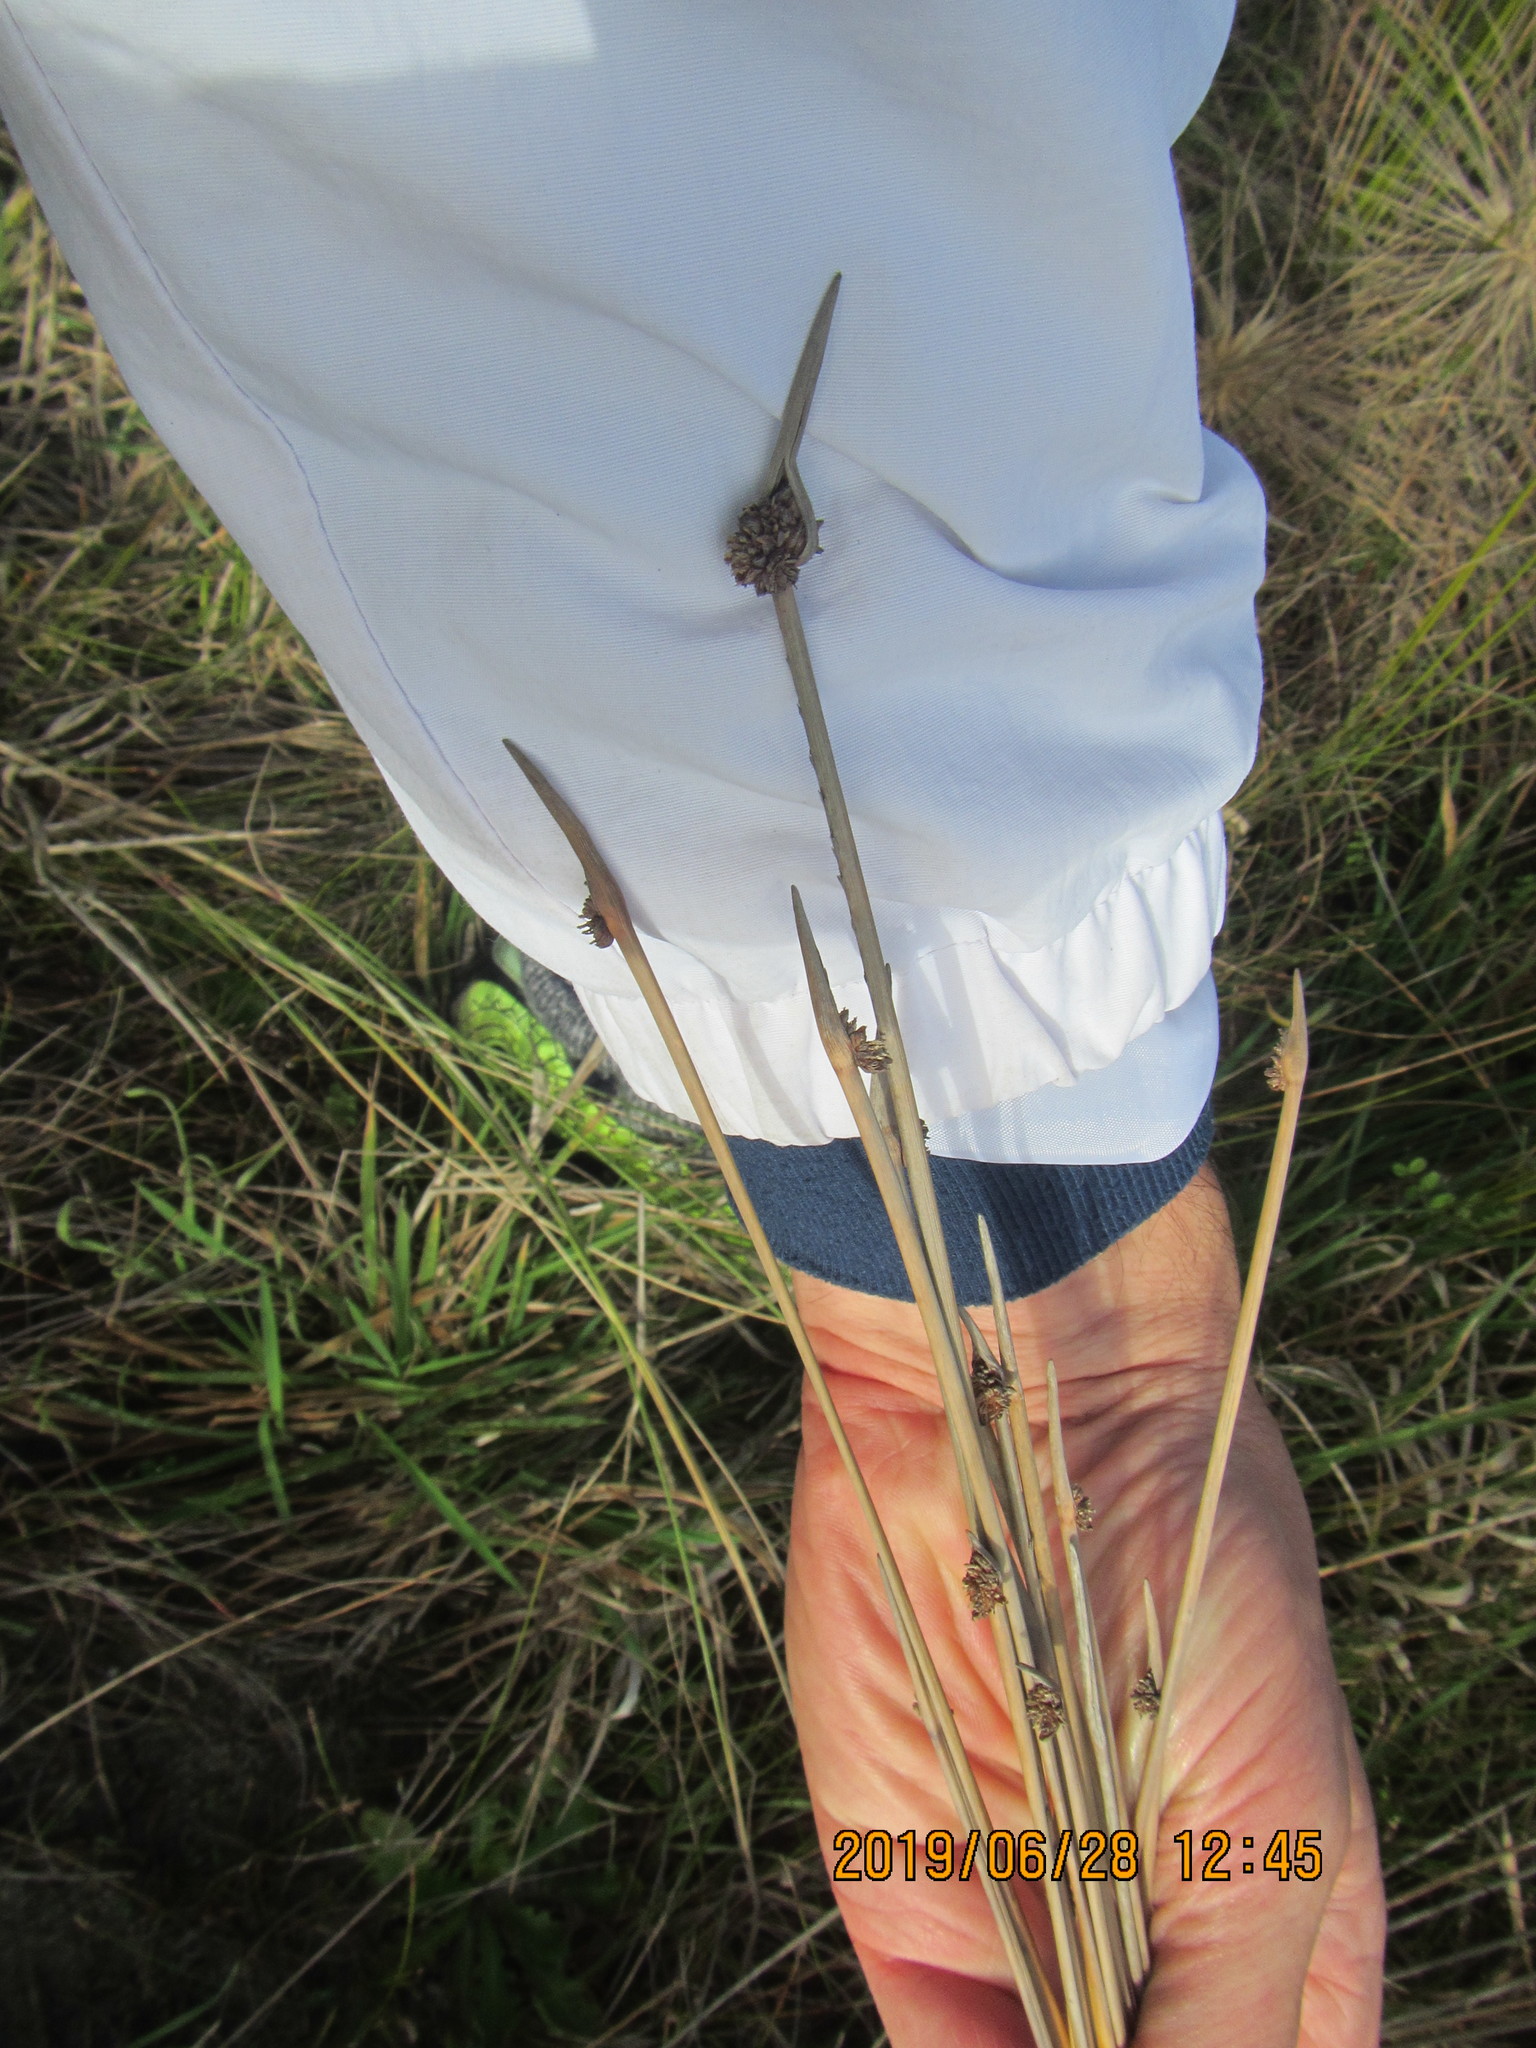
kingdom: Plantae
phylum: Tracheophyta
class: Liliopsida
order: Poales
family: Cyperaceae
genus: Ficinia
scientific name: Ficinia nodosa
